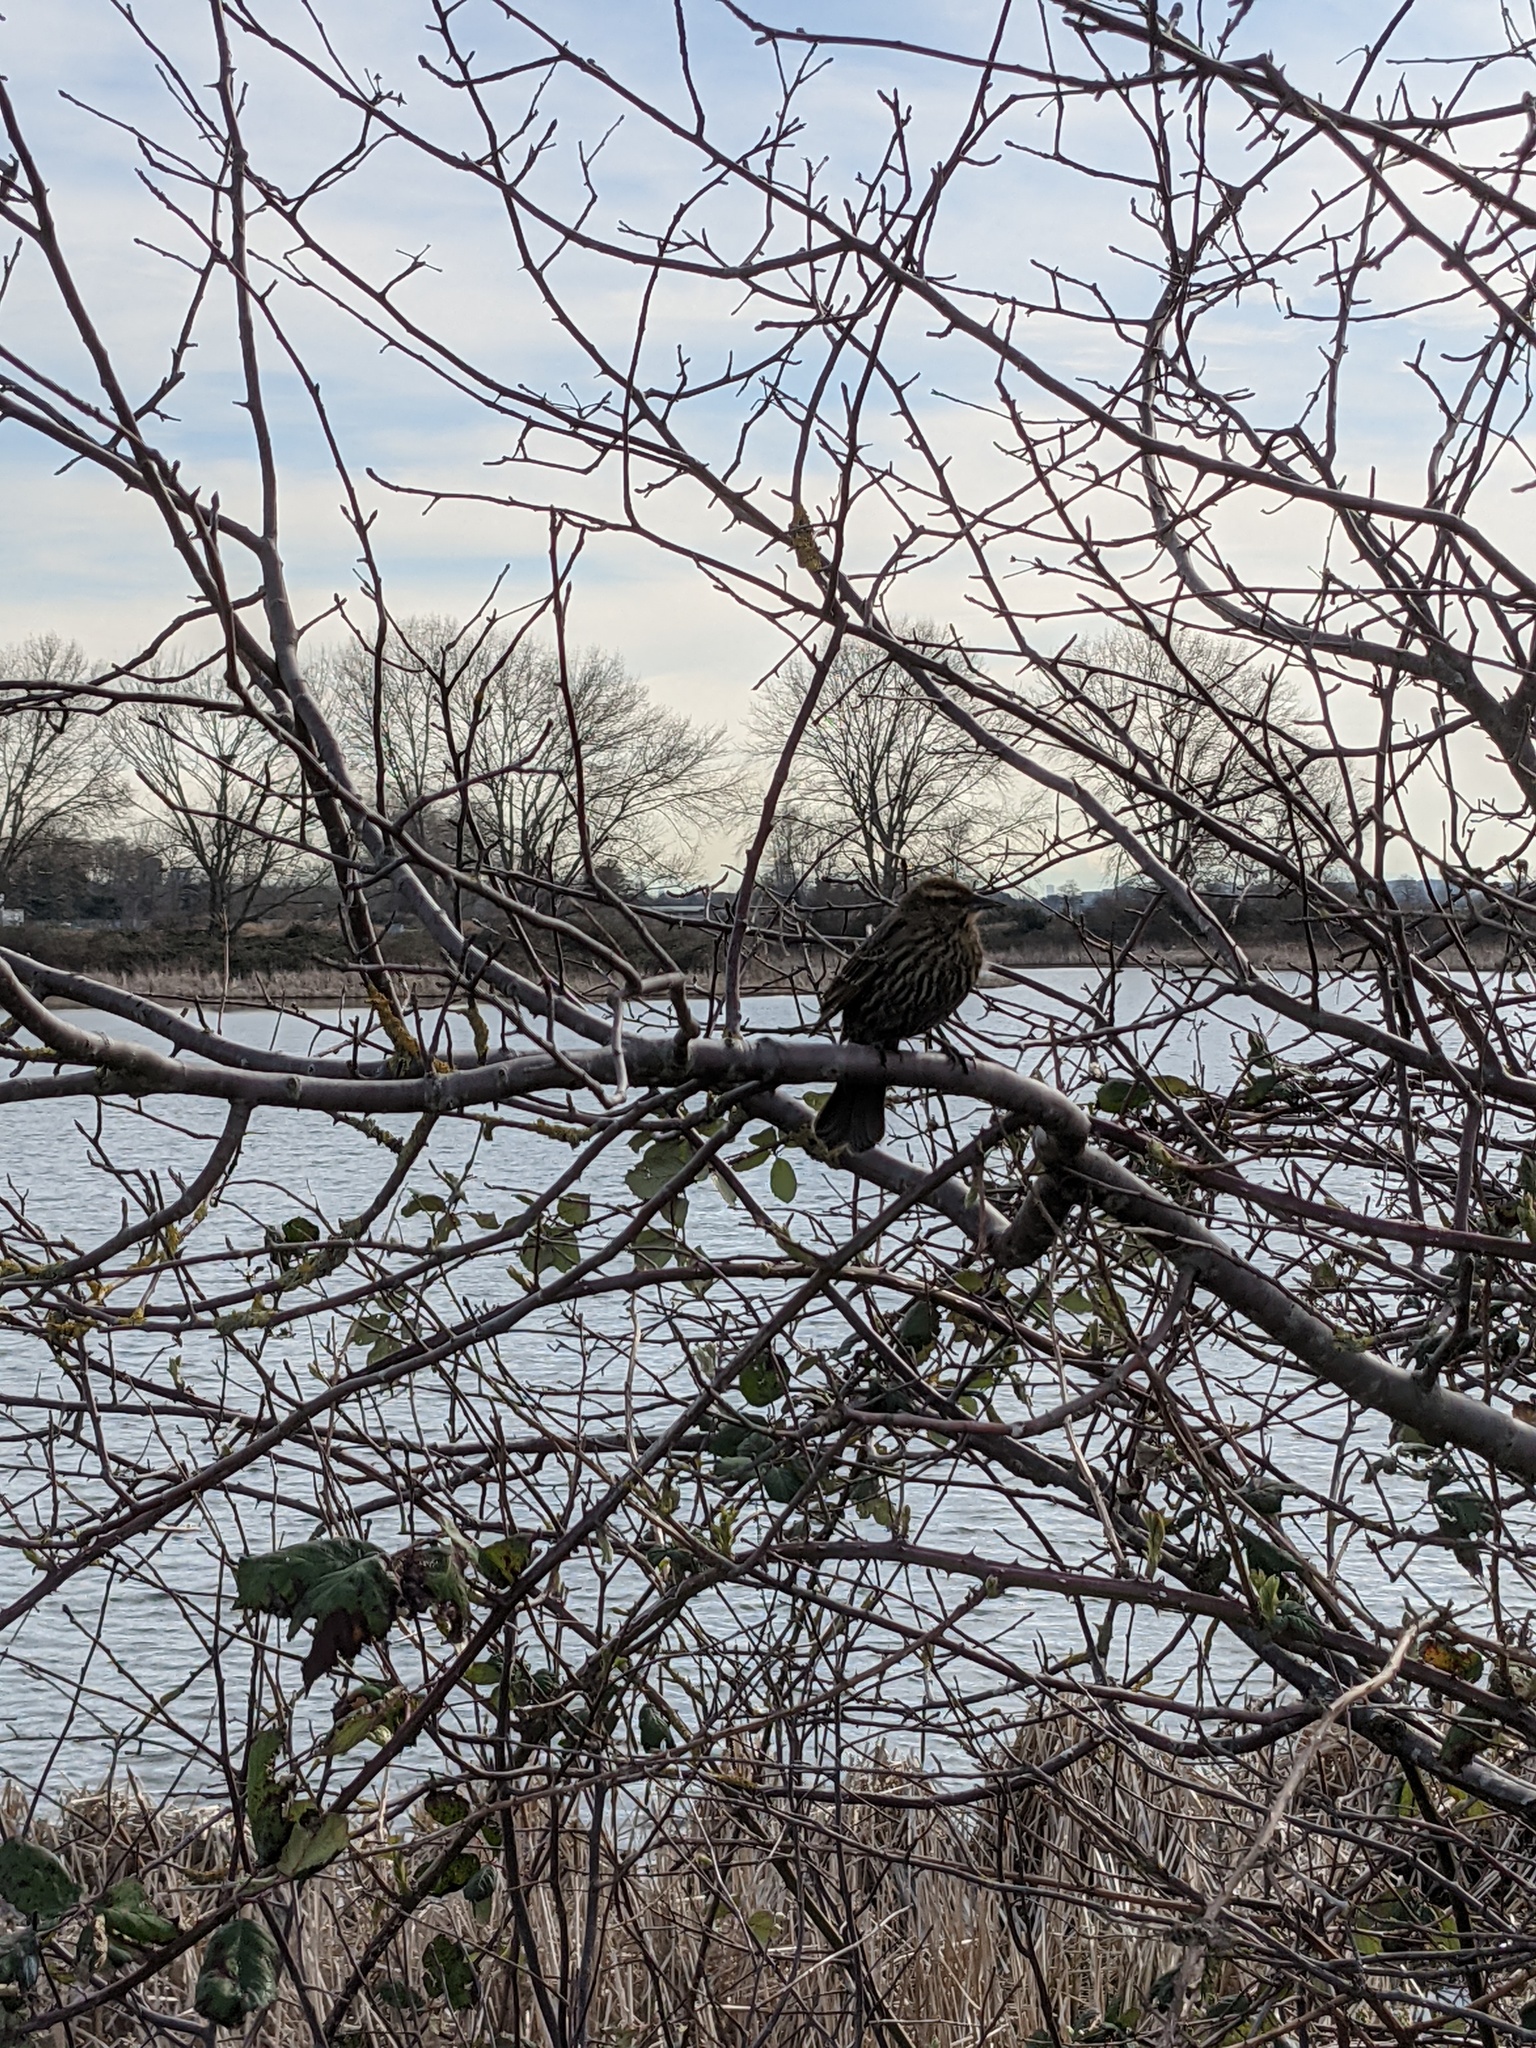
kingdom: Animalia
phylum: Chordata
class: Aves
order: Passeriformes
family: Icteridae
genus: Agelaius
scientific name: Agelaius phoeniceus
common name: Red-winged blackbird
